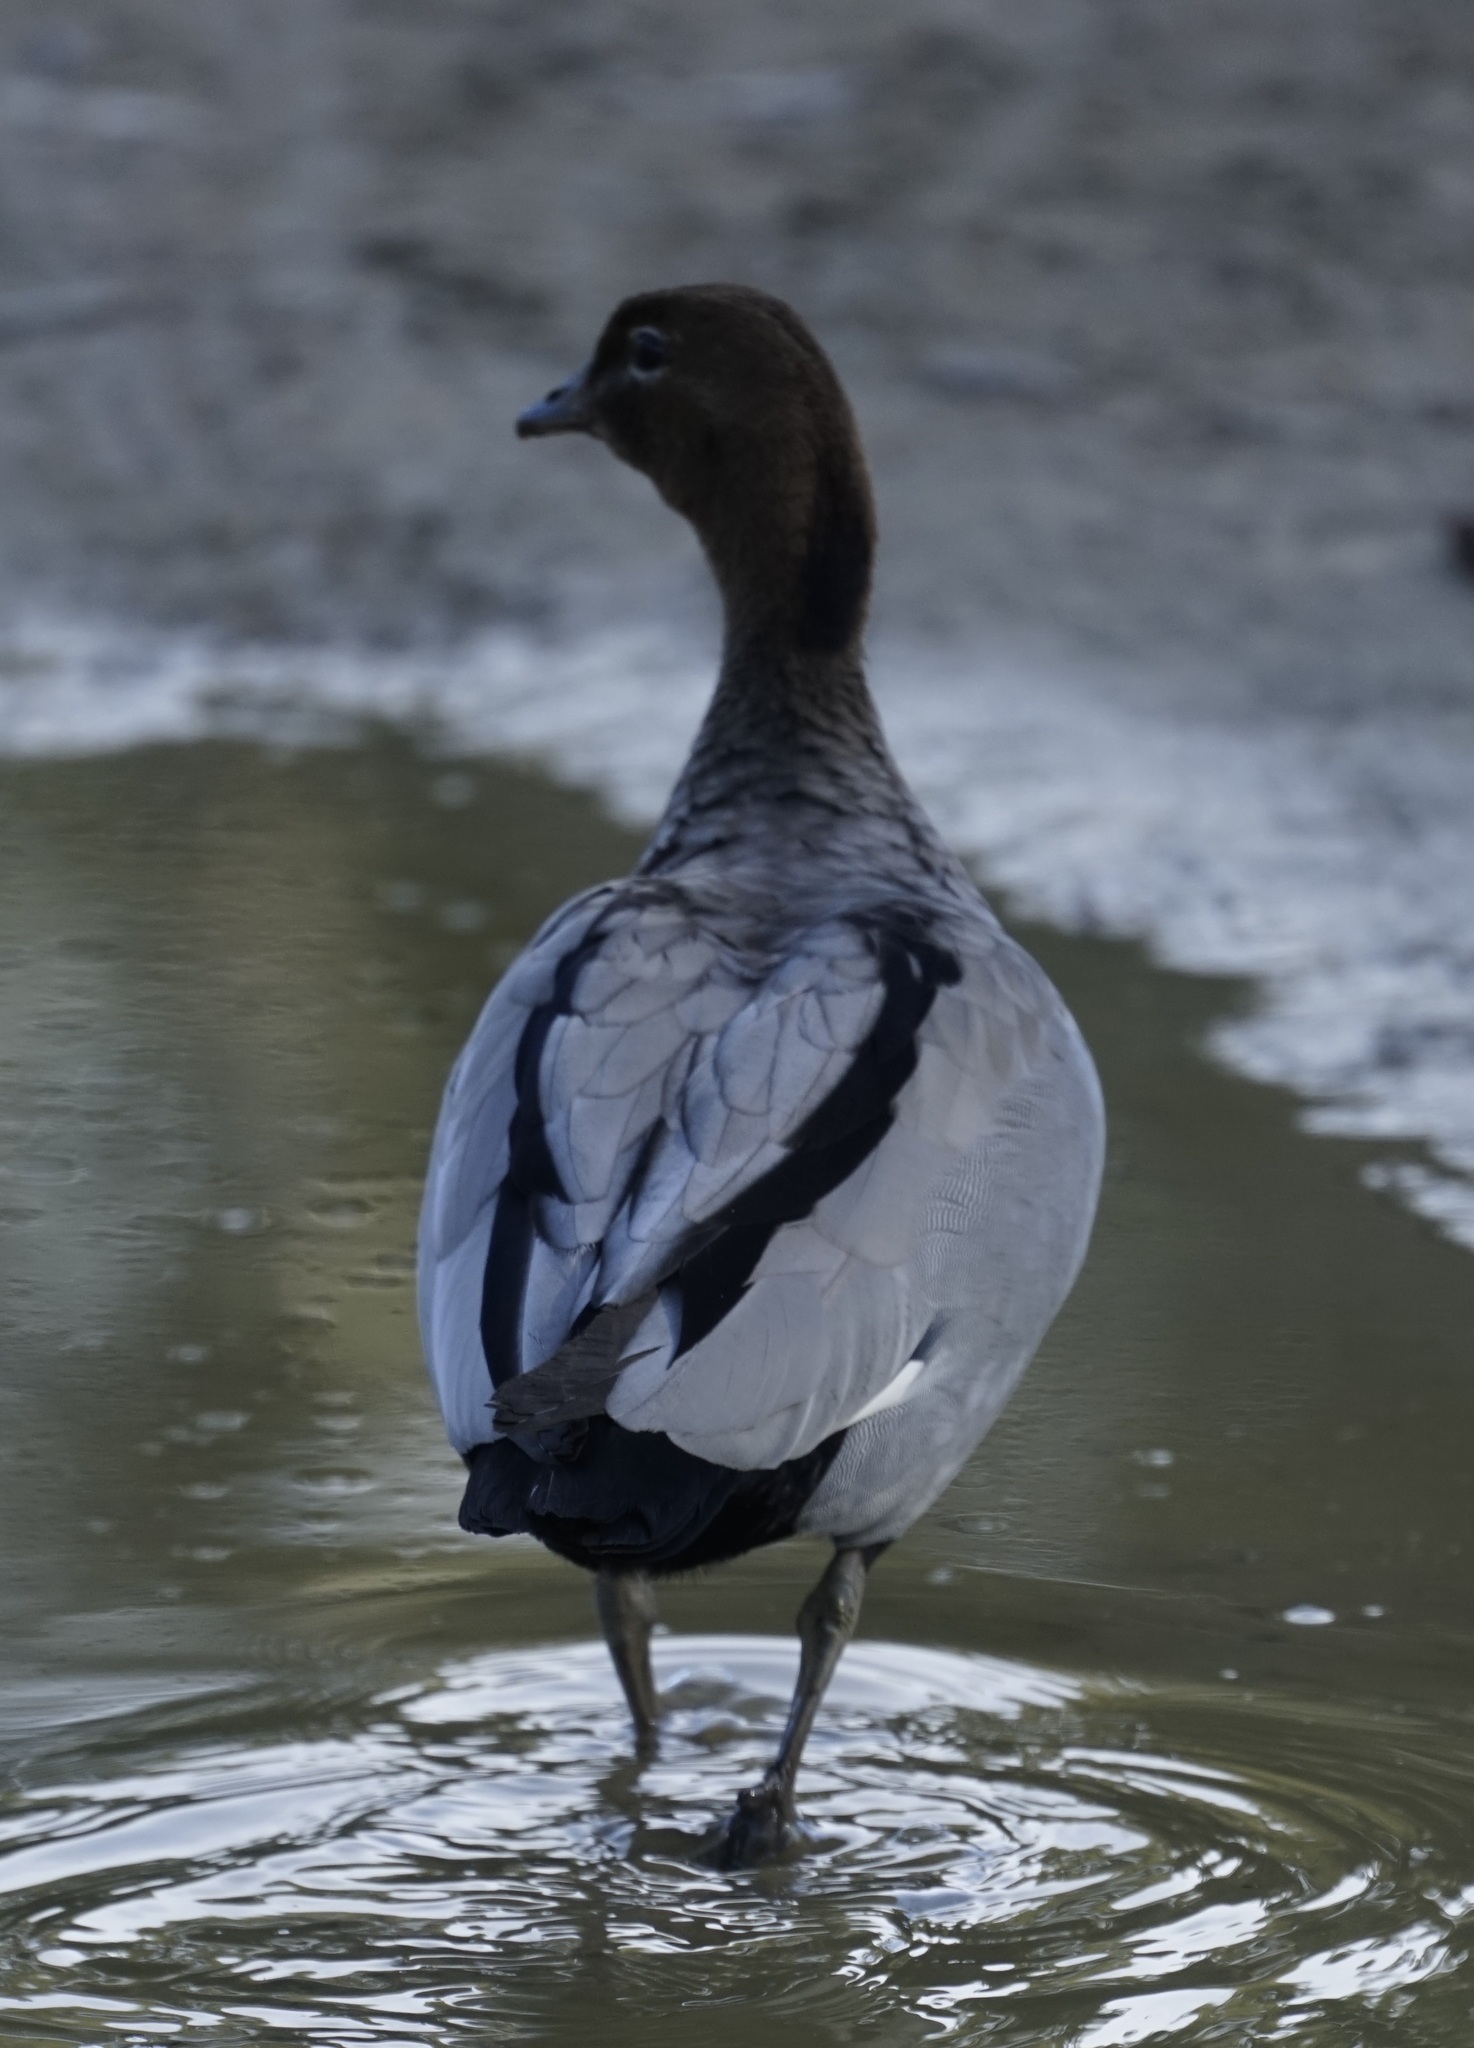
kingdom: Animalia
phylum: Chordata
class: Aves
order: Anseriformes
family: Anatidae
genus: Chenonetta
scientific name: Chenonetta jubata
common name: Maned duck
